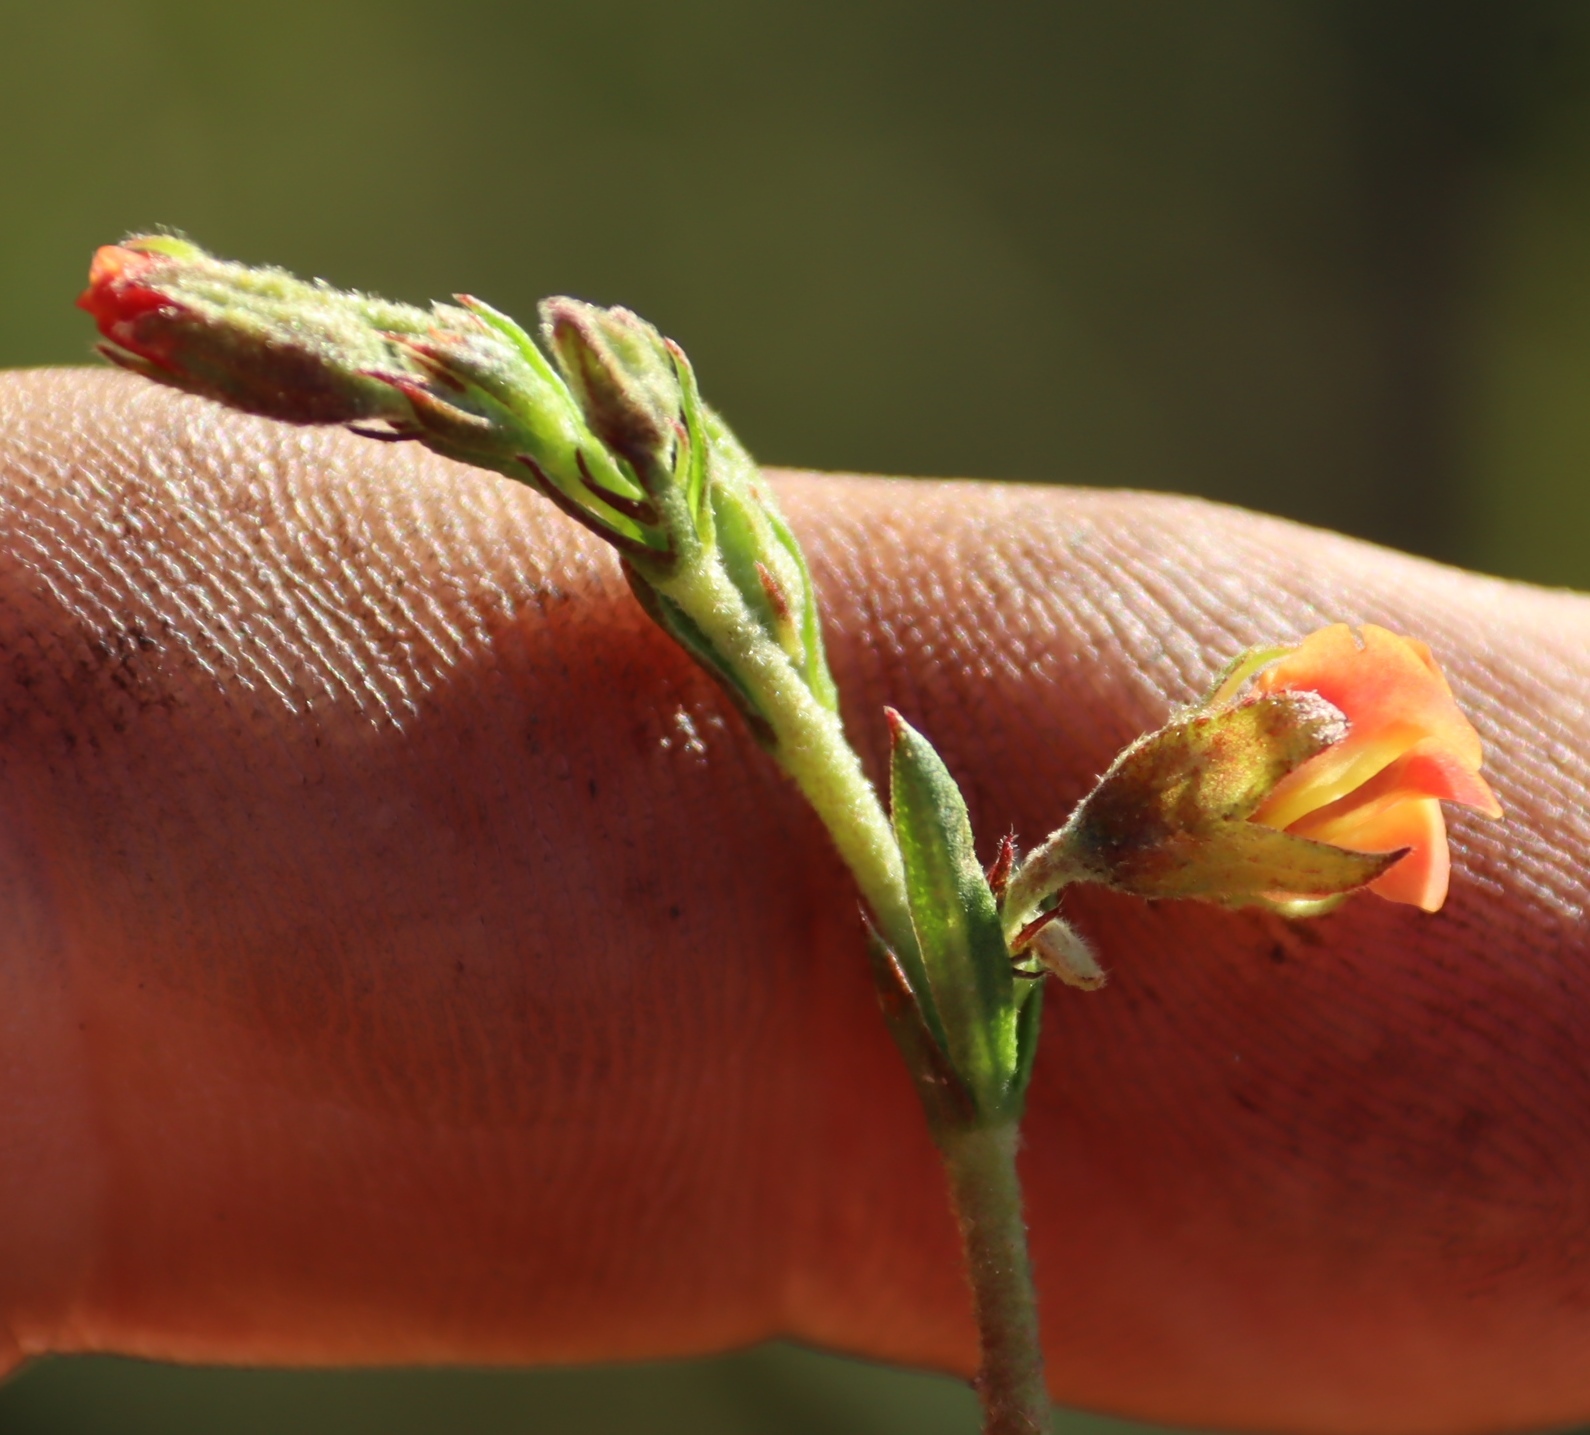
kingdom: Plantae
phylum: Tracheophyta
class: Magnoliopsida
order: Malvales
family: Malvaceae
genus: Hermannia
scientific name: Hermannia flammea
